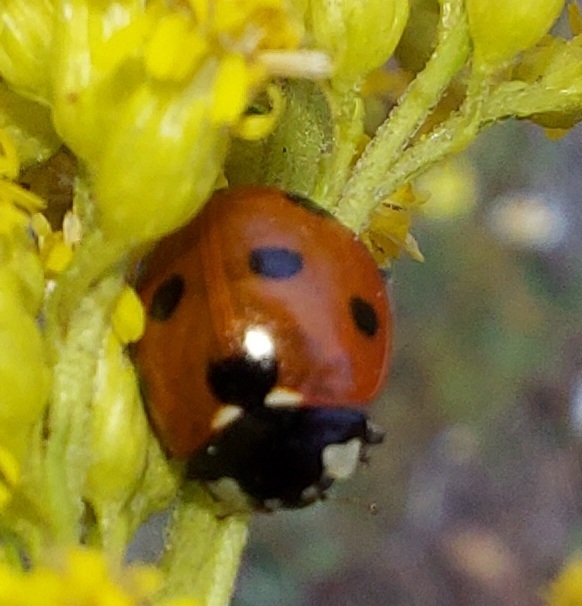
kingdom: Animalia
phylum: Arthropoda
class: Insecta
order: Coleoptera
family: Coccinellidae
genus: Coccinella
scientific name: Coccinella septempunctata
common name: Sevenspotted lady beetle
